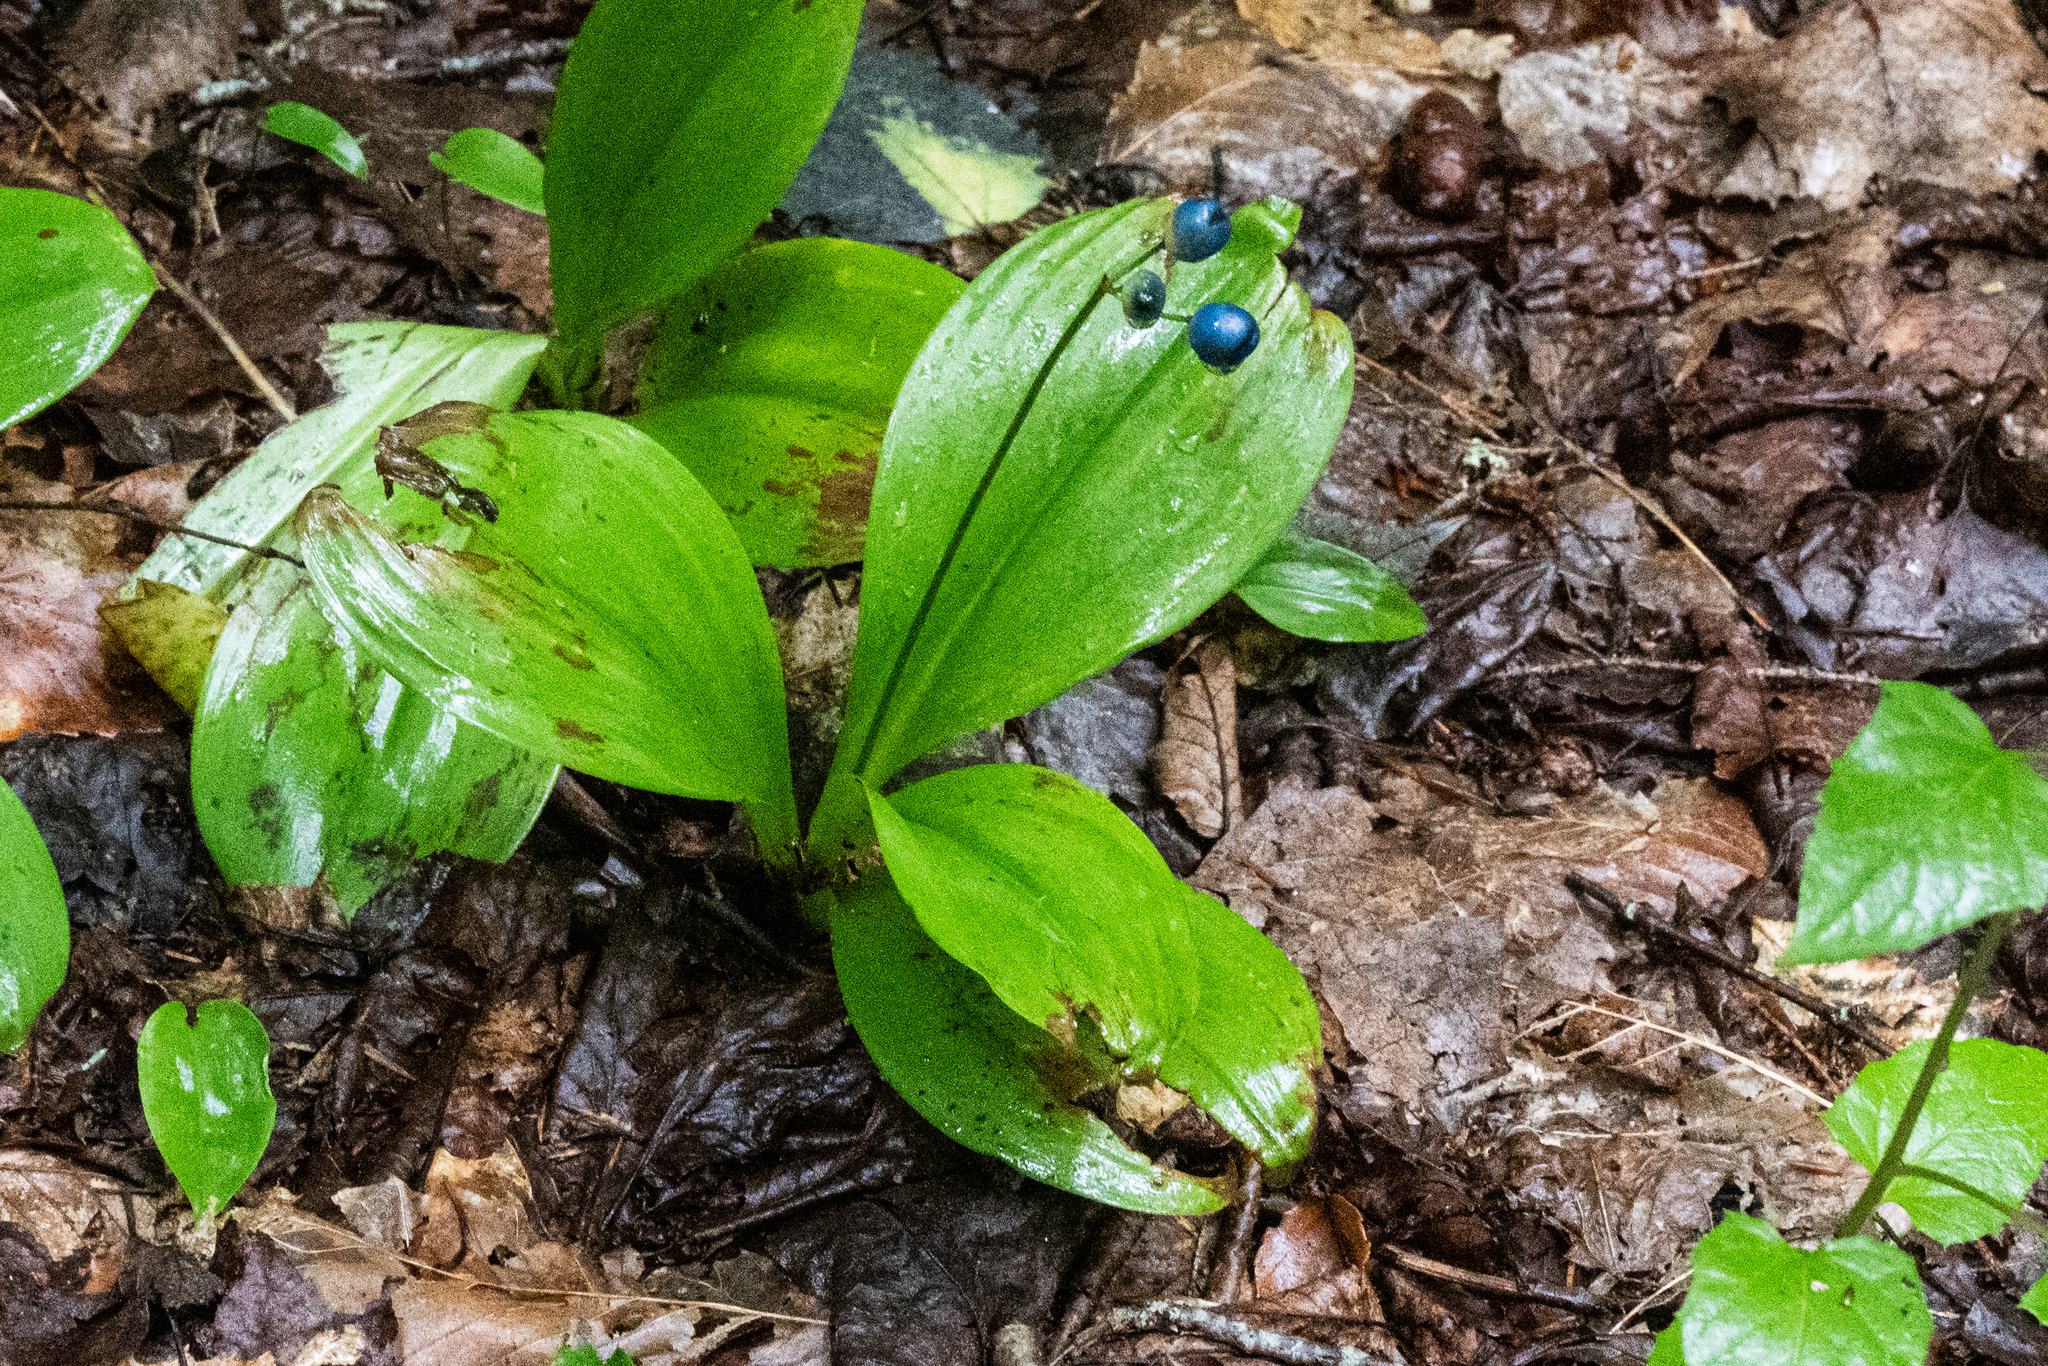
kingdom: Plantae
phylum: Tracheophyta
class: Liliopsida
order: Liliales
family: Liliaceae
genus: Clintonia
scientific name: Clintonia borealis
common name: Yellow clintonia
